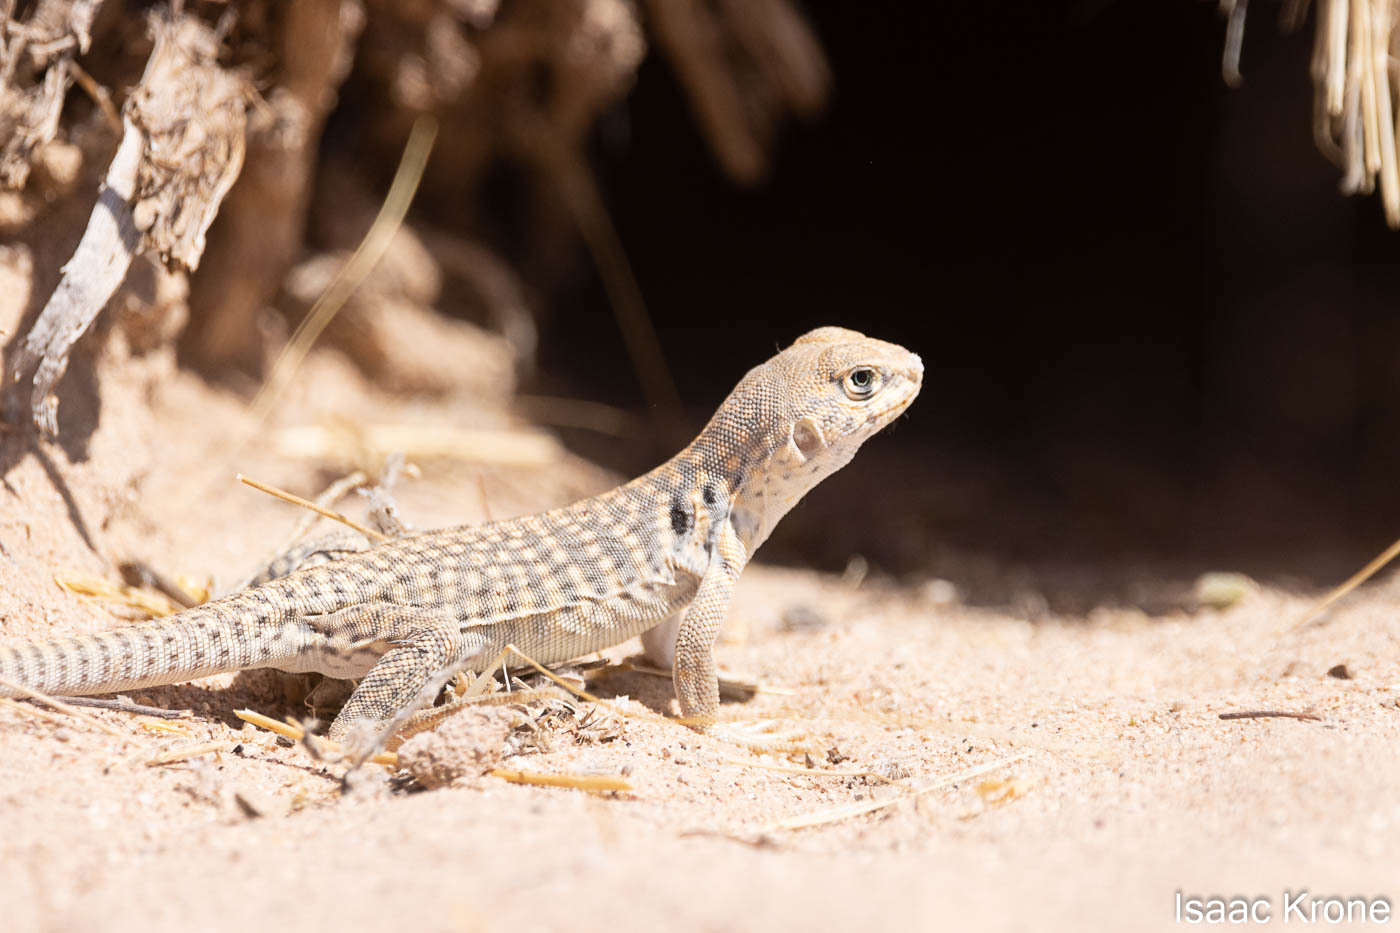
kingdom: Animalia
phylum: Chordata
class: Squamata
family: Iguanidae
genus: Dipsosaurus
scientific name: Dipsosaurus dorsalis
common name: Desert iguana
